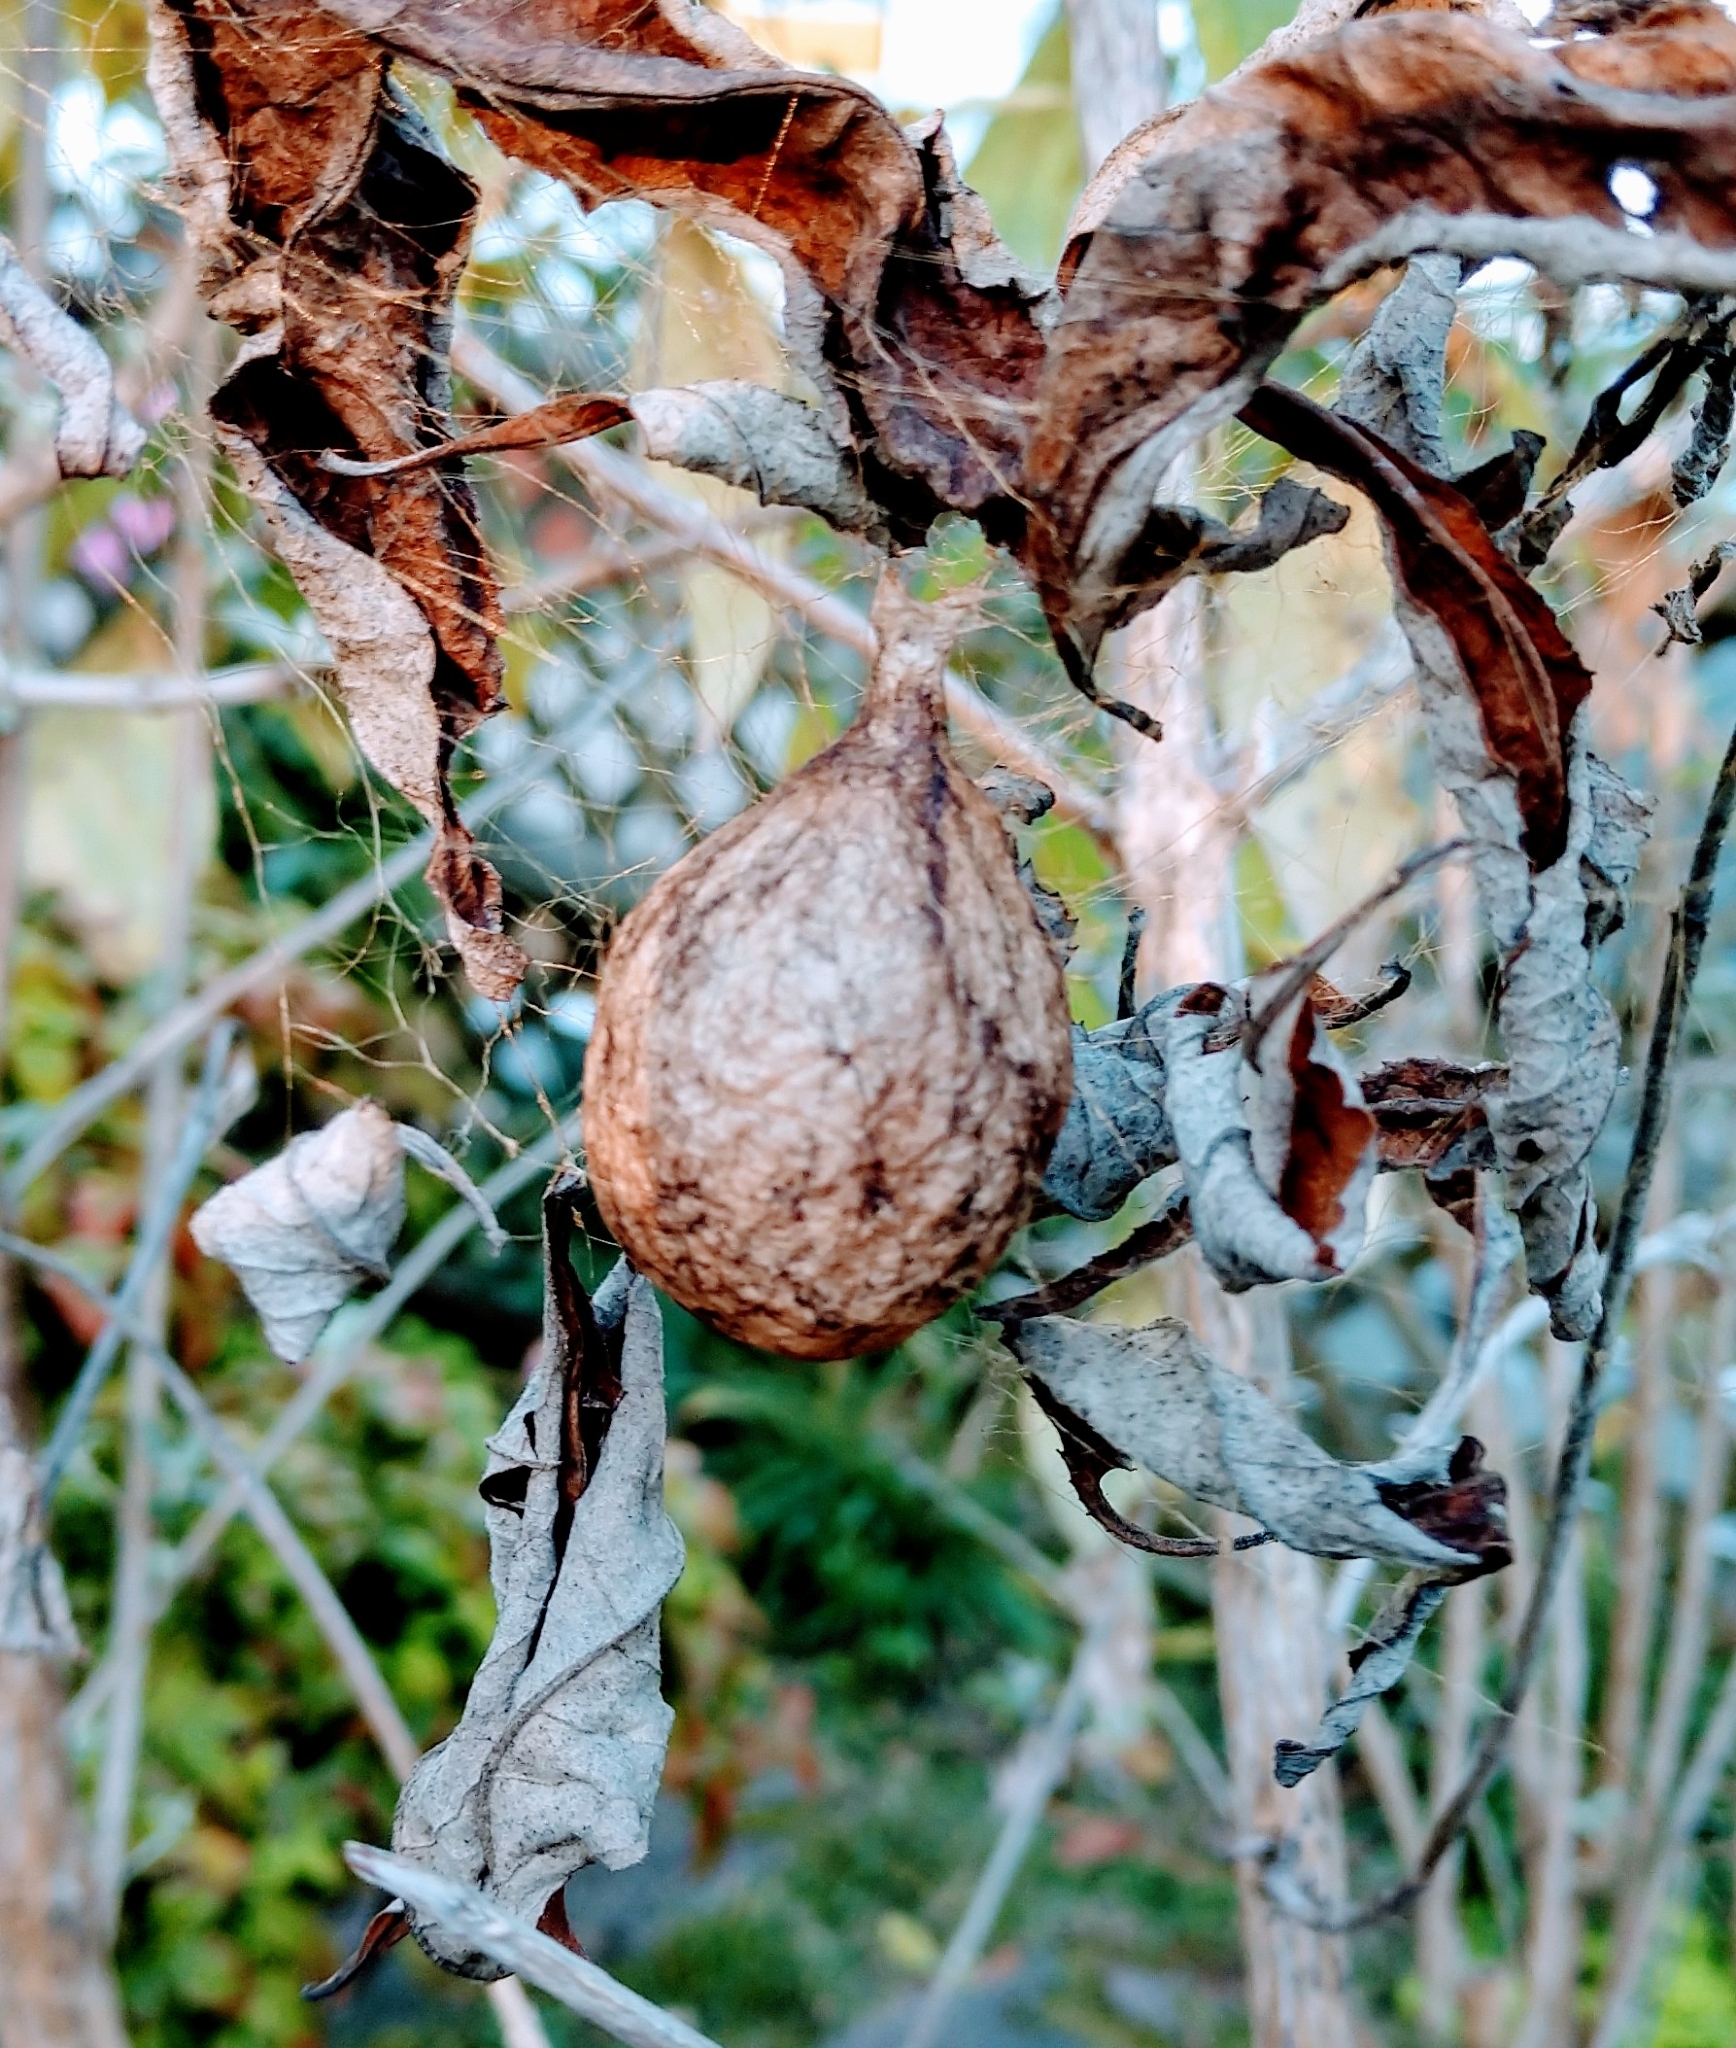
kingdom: Animalia
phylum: Arthropoda
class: Arachnida
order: Araneae
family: Araneidae
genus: Argiope
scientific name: Argiope aurantia
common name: Orb weavers
